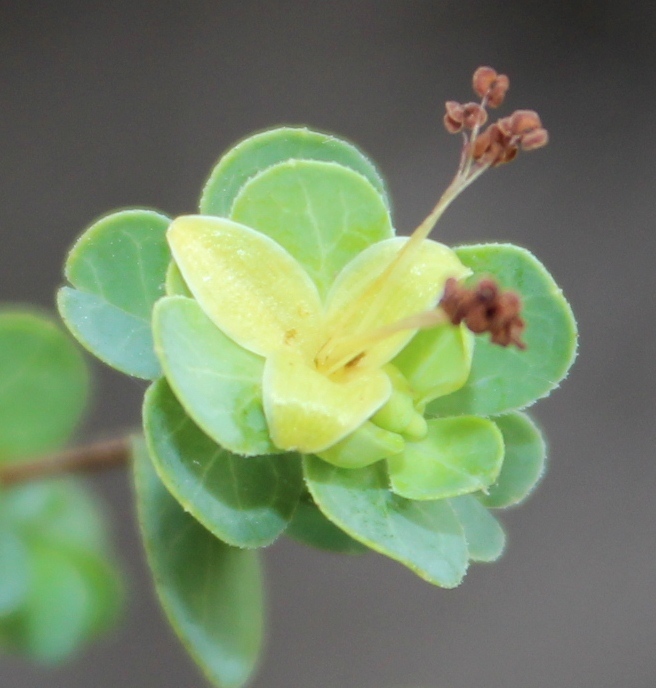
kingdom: Plantae
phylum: Tracheophyta
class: Magnoliopsida
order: Rosales
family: Rosaceae
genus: Cliffortia
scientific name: Cliffortia obcordata
